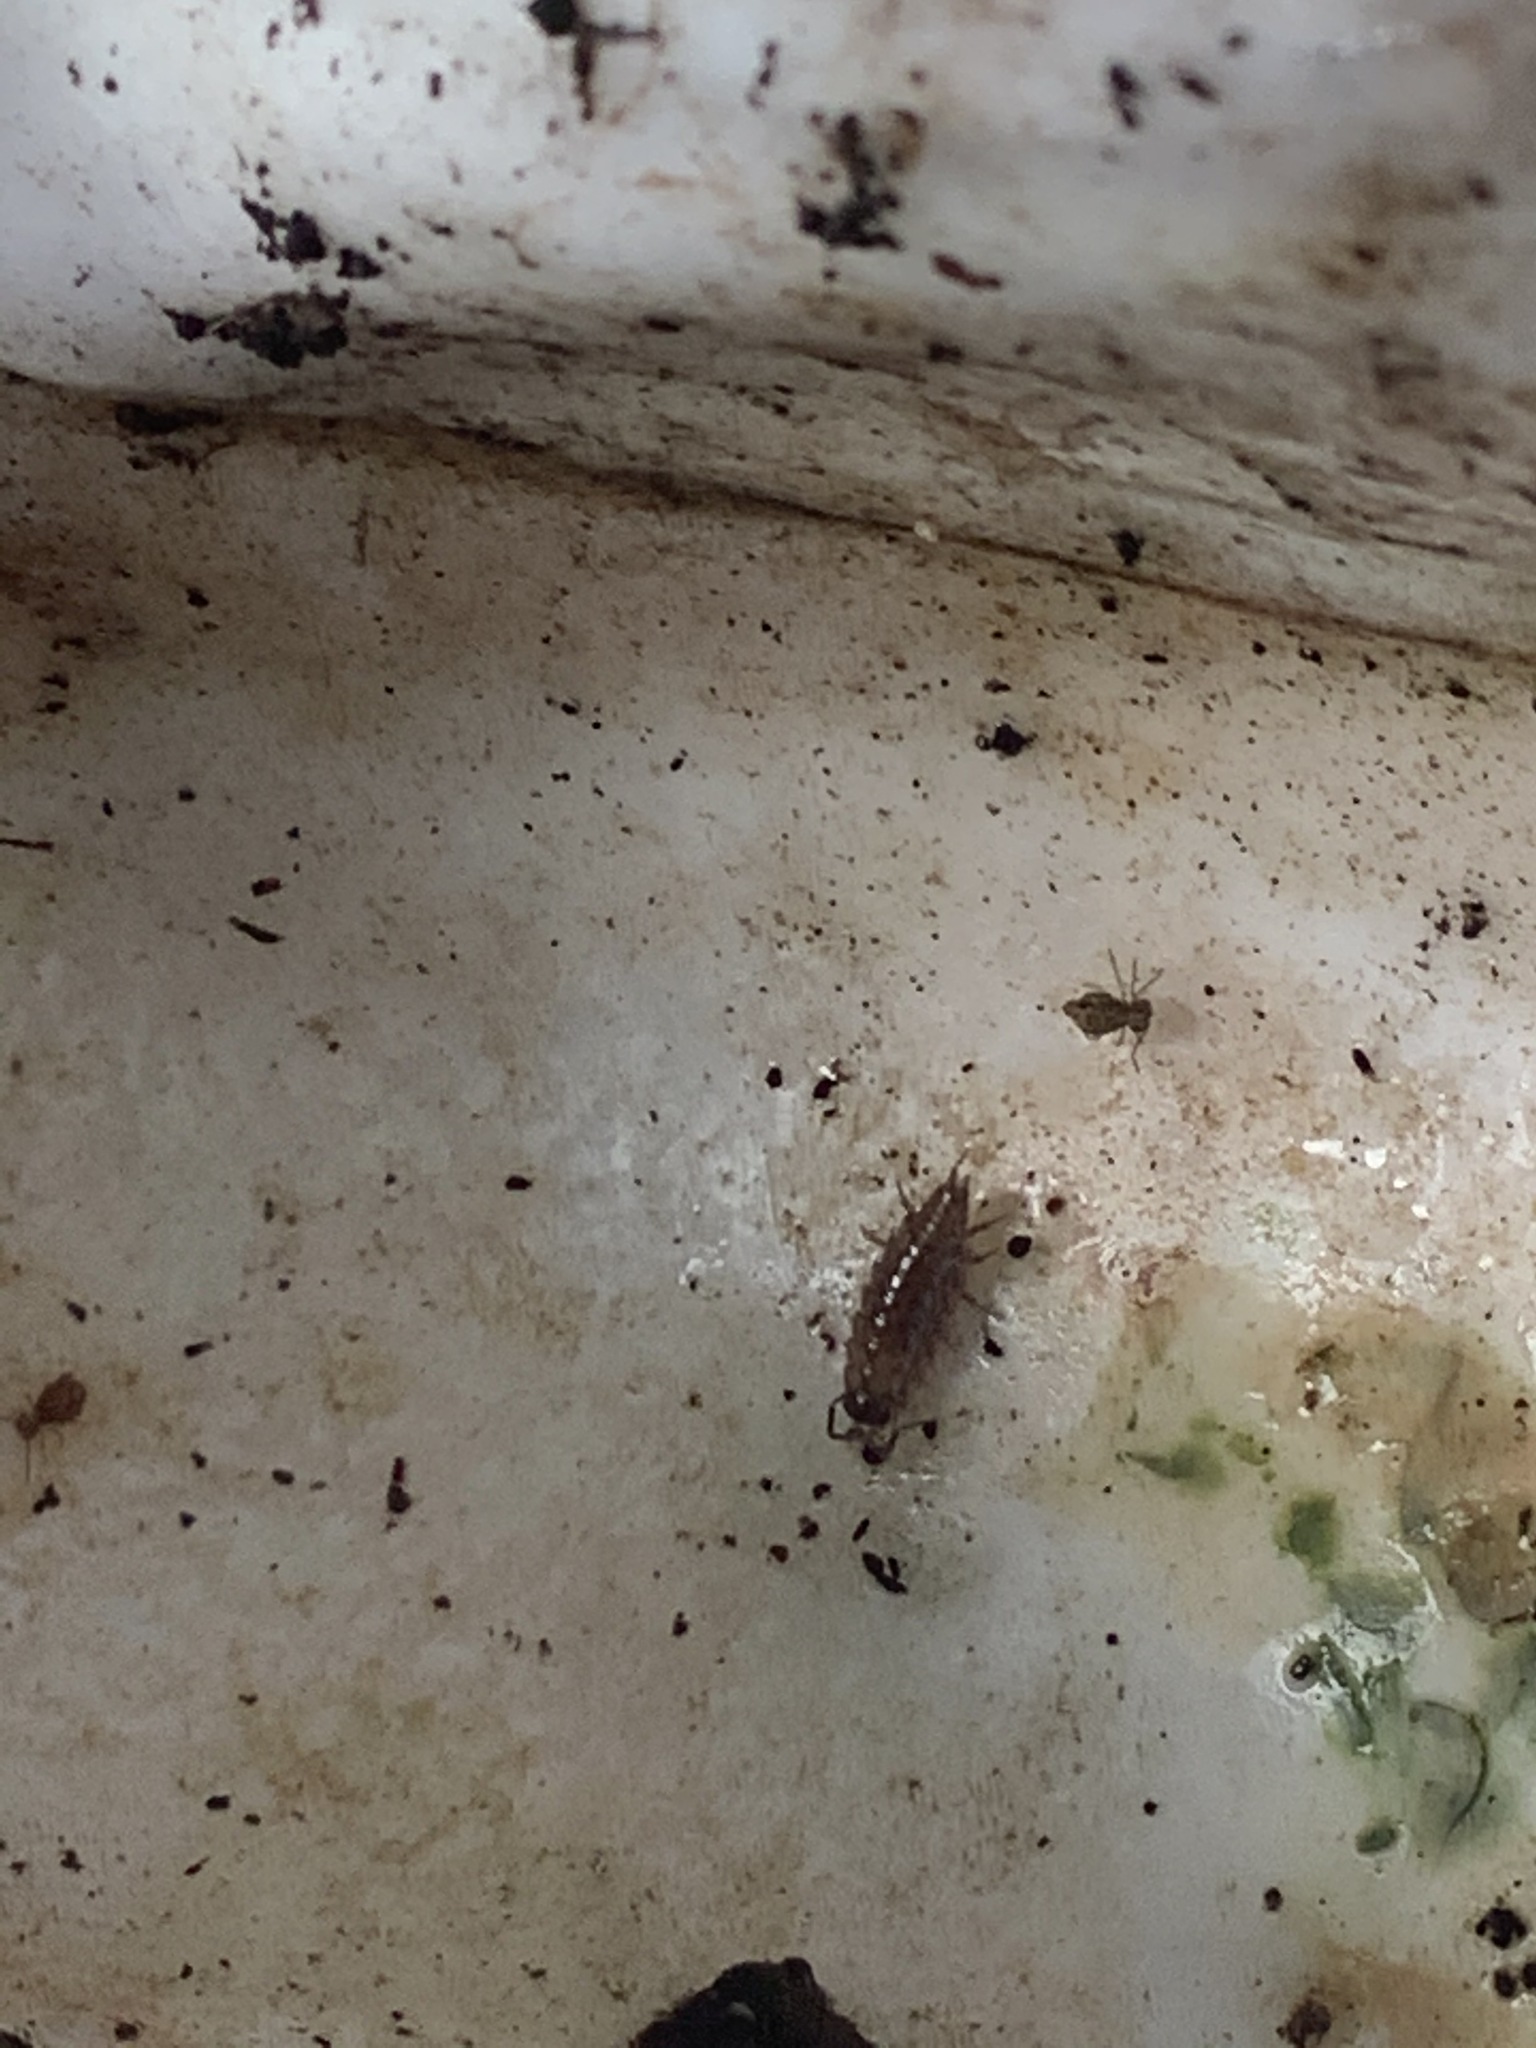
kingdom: Animalia
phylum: Arthropoda
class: Malacostraca
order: Isopoda
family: Ligiidae
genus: Ligidium
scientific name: Ligidium gracile
